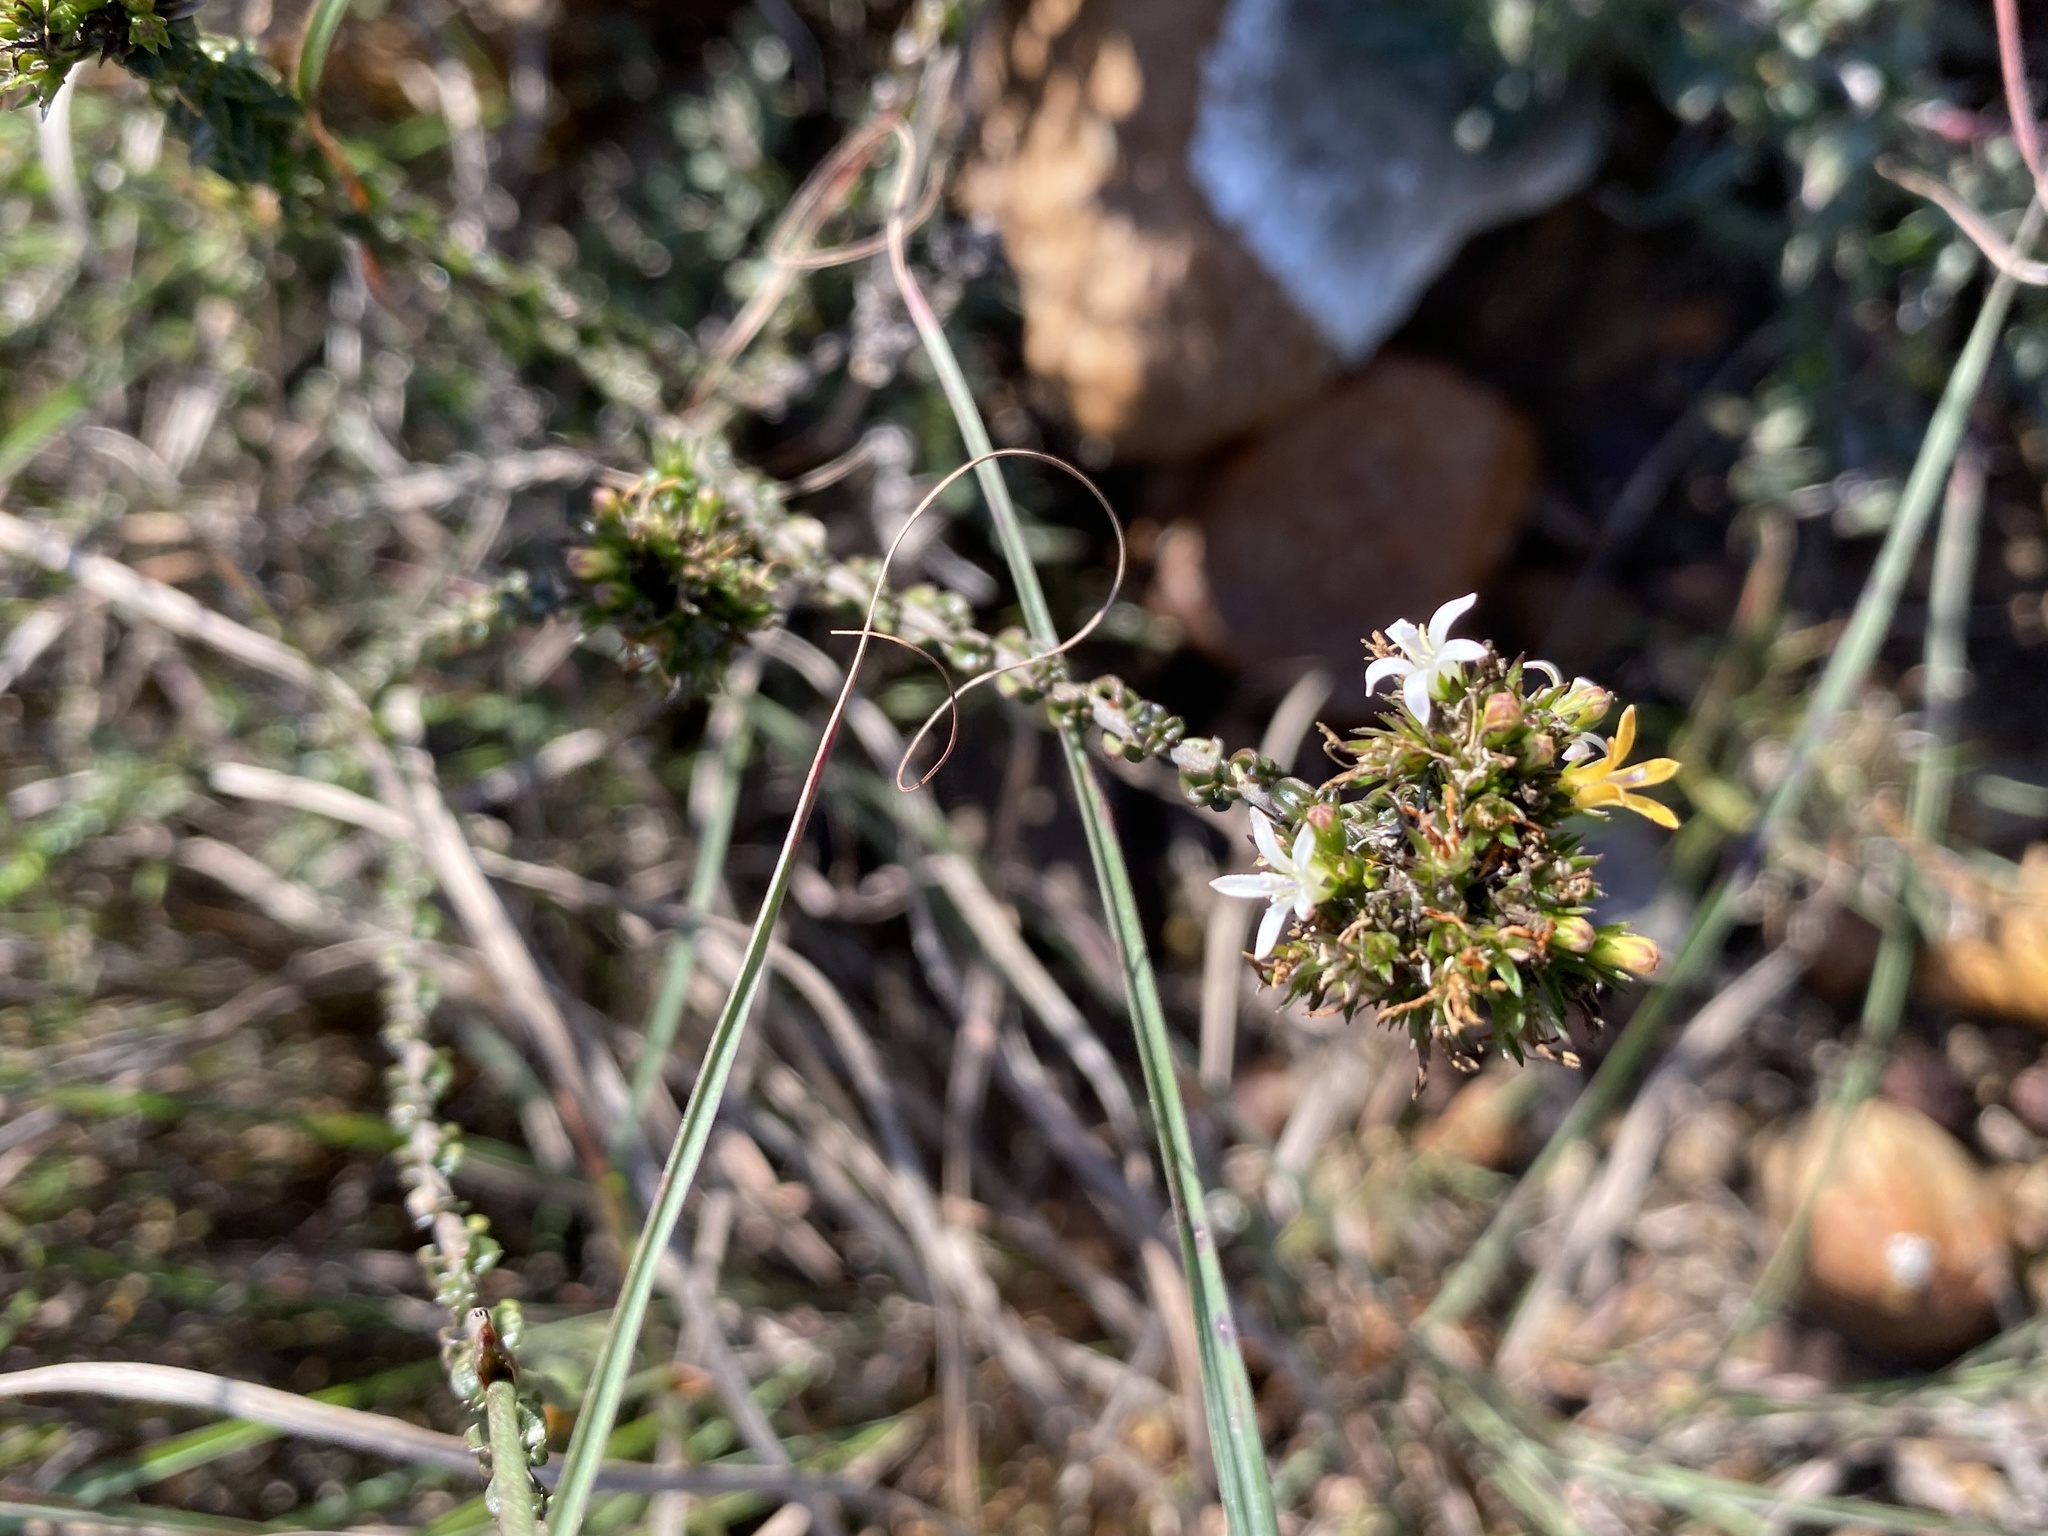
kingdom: Plantae
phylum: Tracheophyta
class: Magnoliopsida
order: Asterales
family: Campanulaceae
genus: Wahlenbergia
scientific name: Wahlenbergia desmantha
